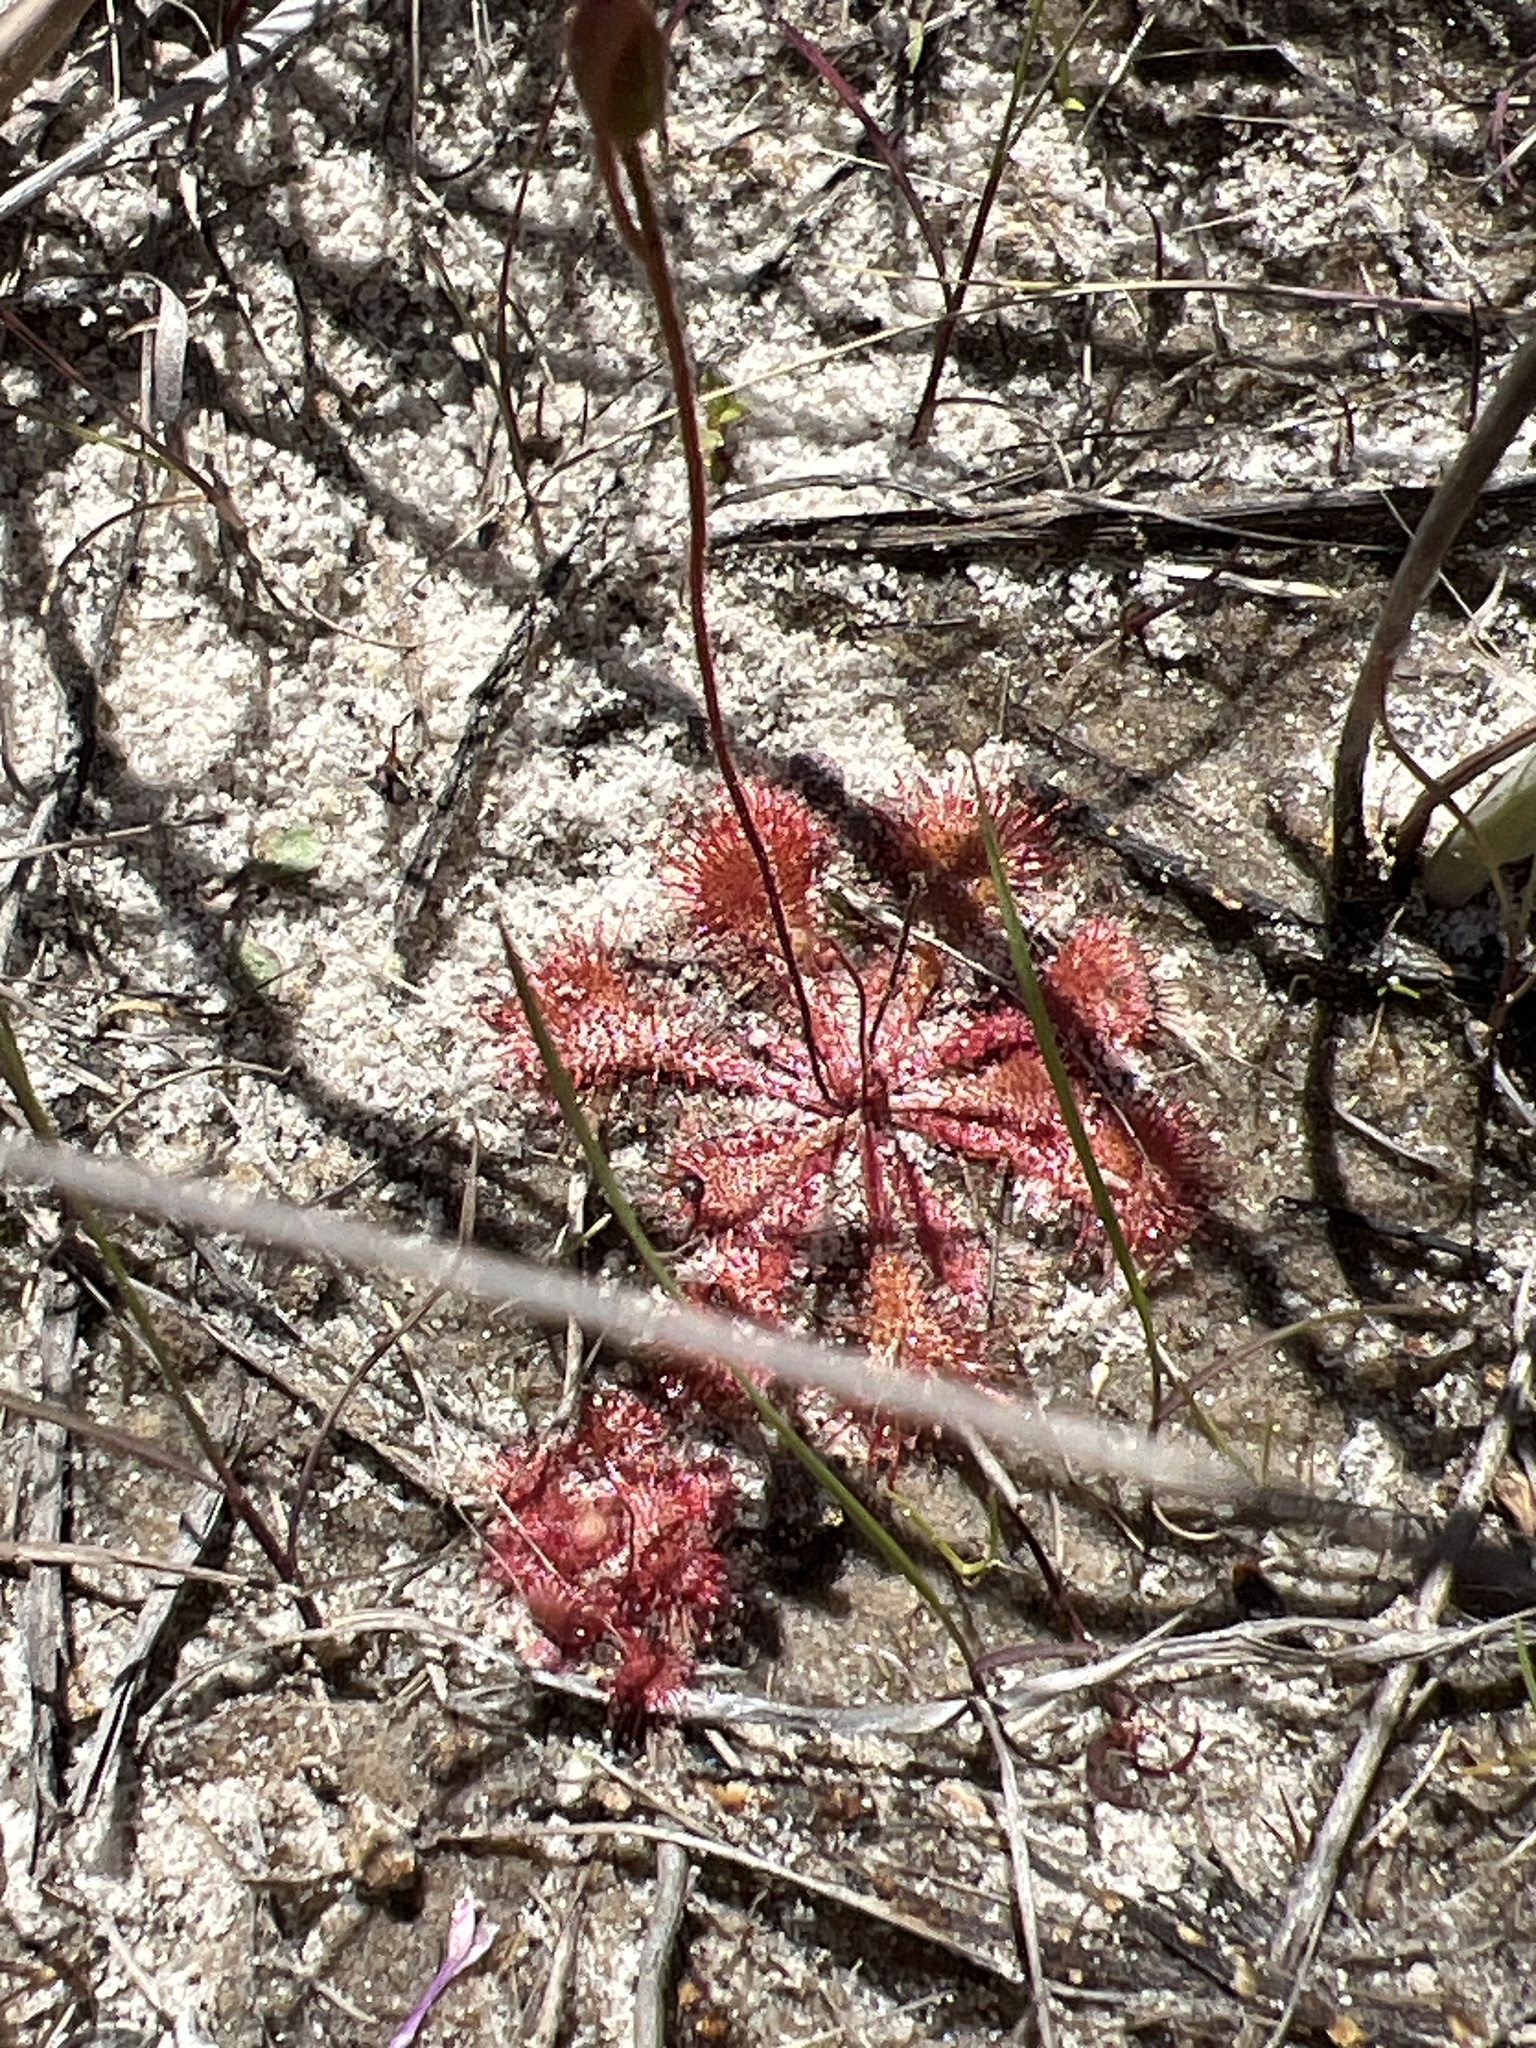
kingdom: Plantae
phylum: Tracheophyta
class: Magnoliopsida
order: Caryophyllales
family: Droseraceae
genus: Drosera
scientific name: Drosera brevifolia
